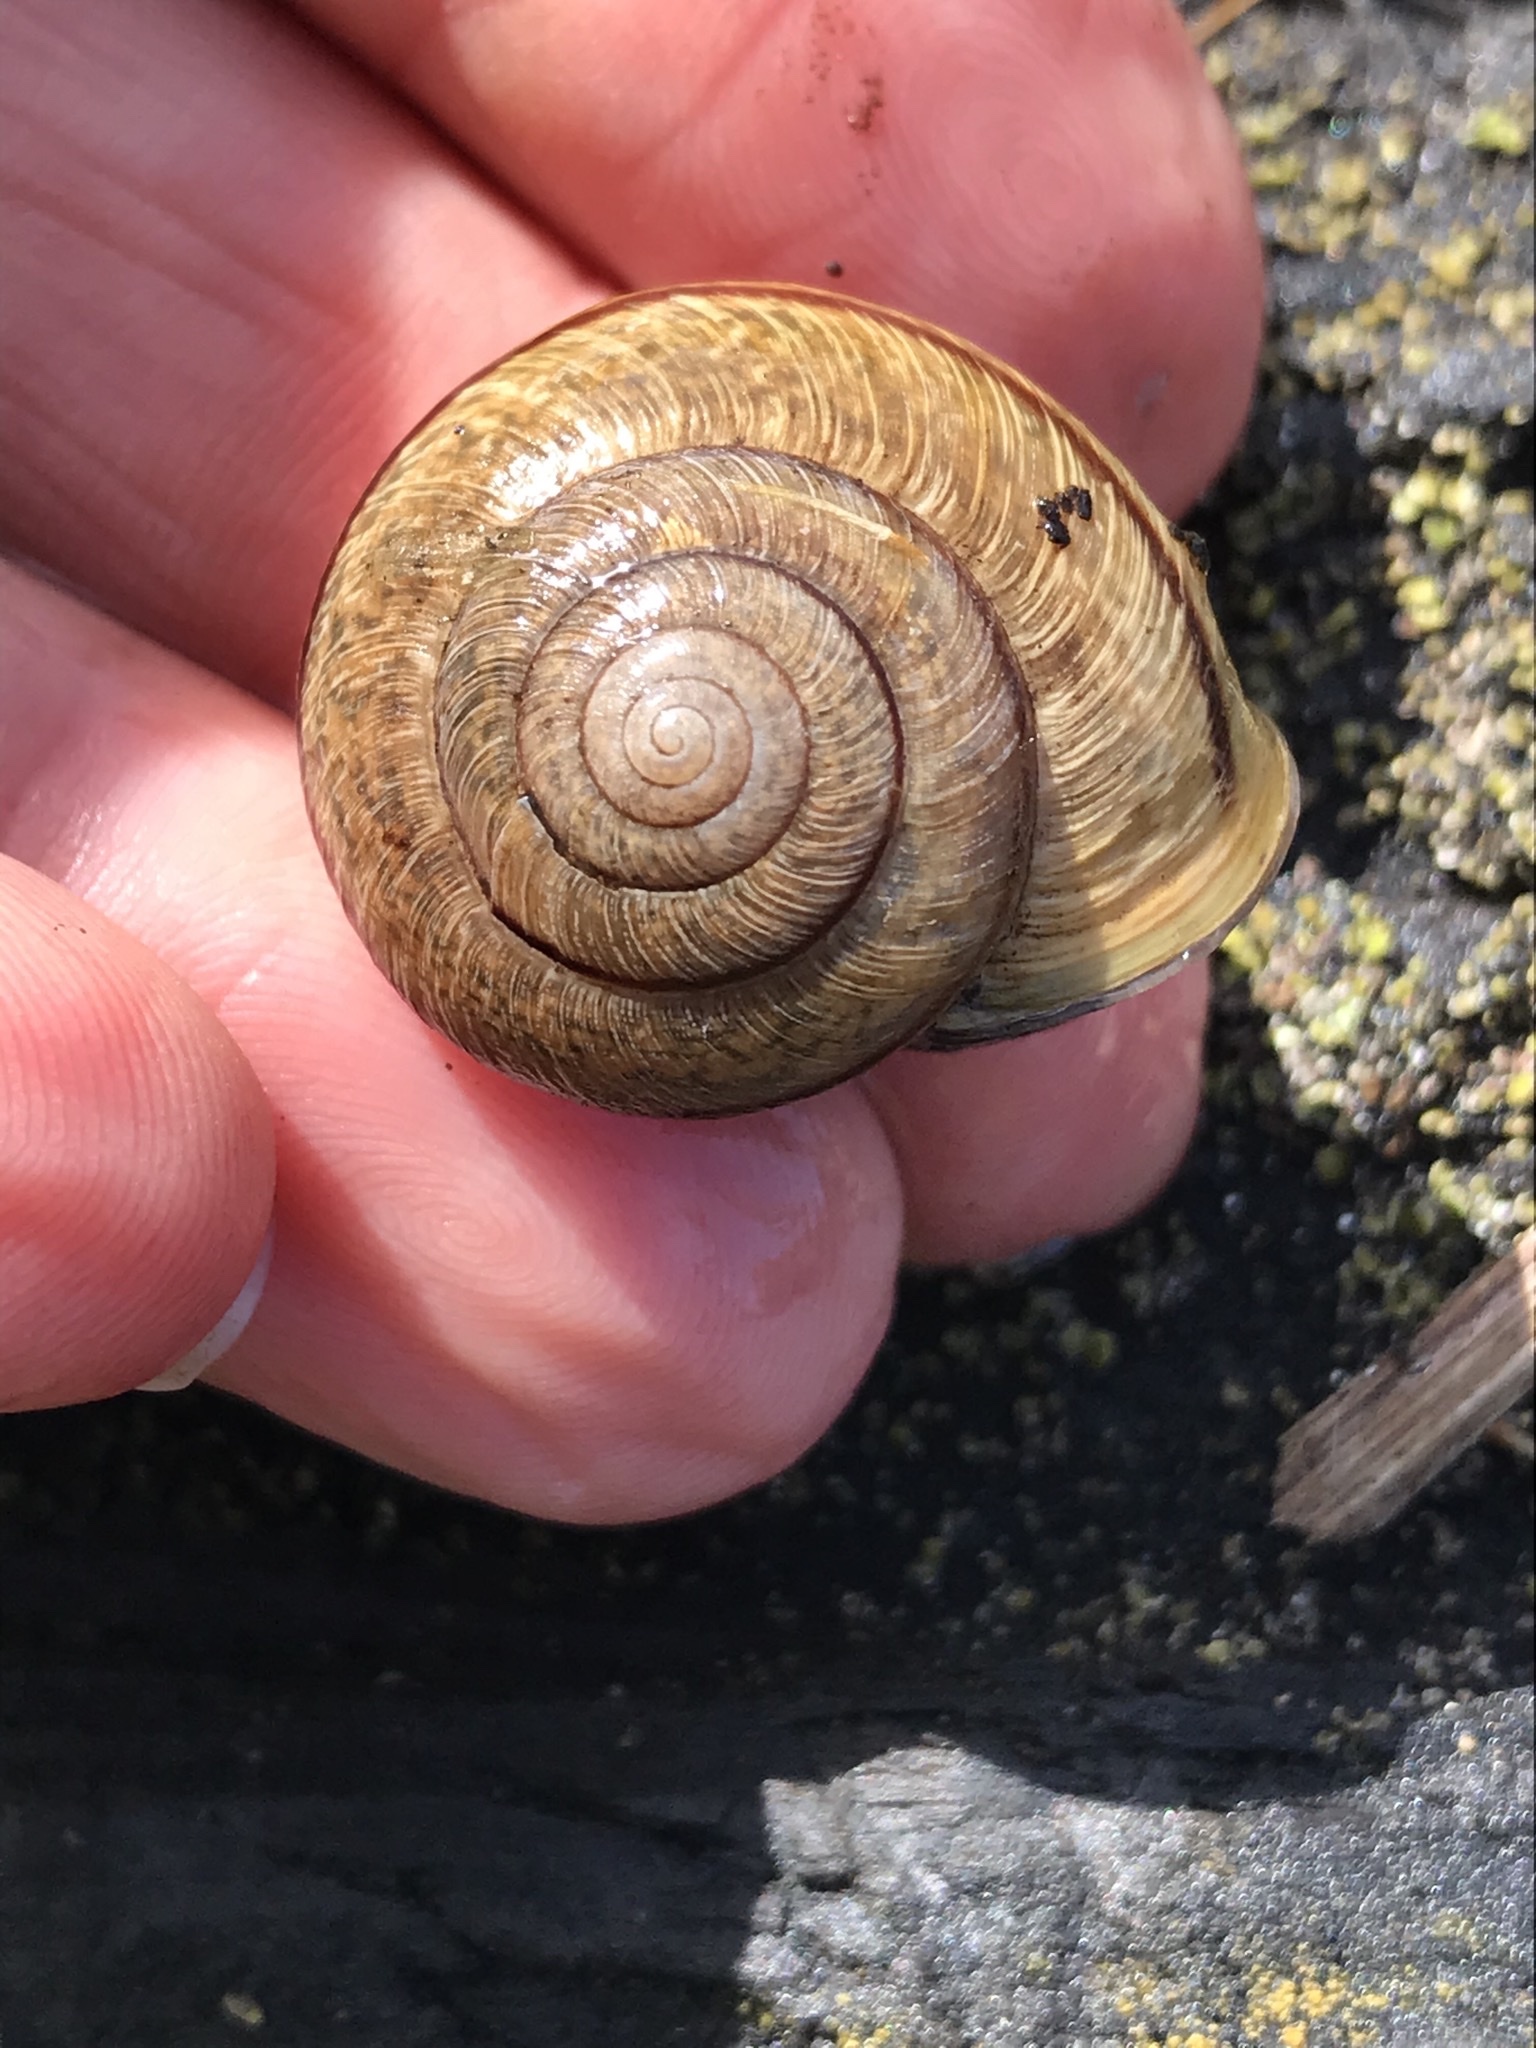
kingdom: Animalia
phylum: Mollusca
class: Gastropoda
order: Stylommatophora
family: Xanthonychidae
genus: Helminthoglypta
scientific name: Helminthoglypta stiversiana
